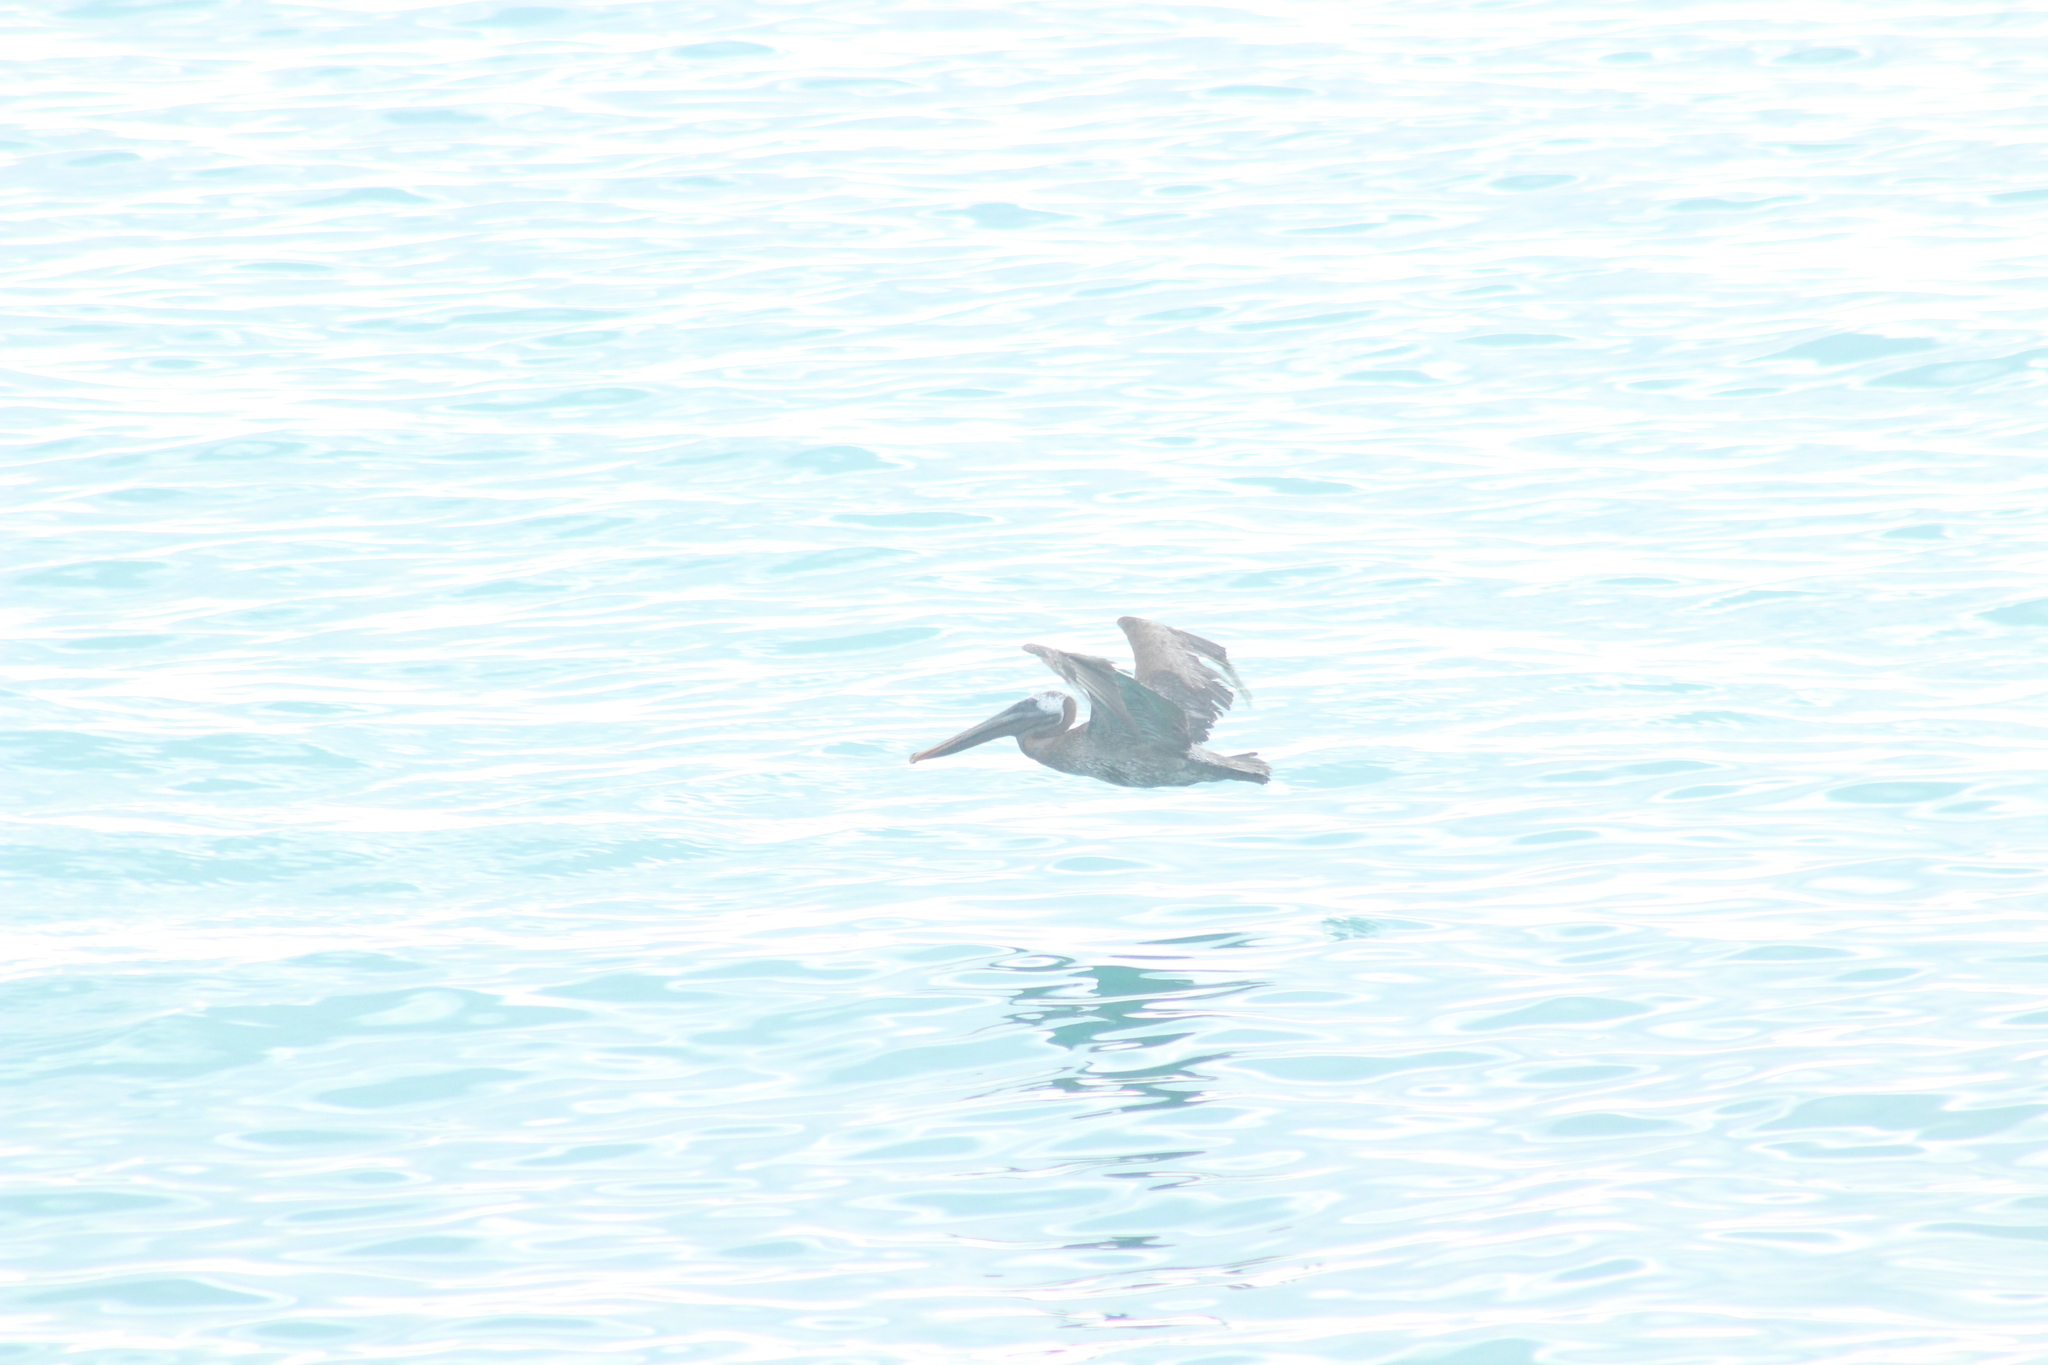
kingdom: Animalia
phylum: Chordata
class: Aves
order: Pelecaniformes
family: Pelecanidae
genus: Pelecanus
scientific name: Pelecanus occidentalis
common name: Brown pelican
